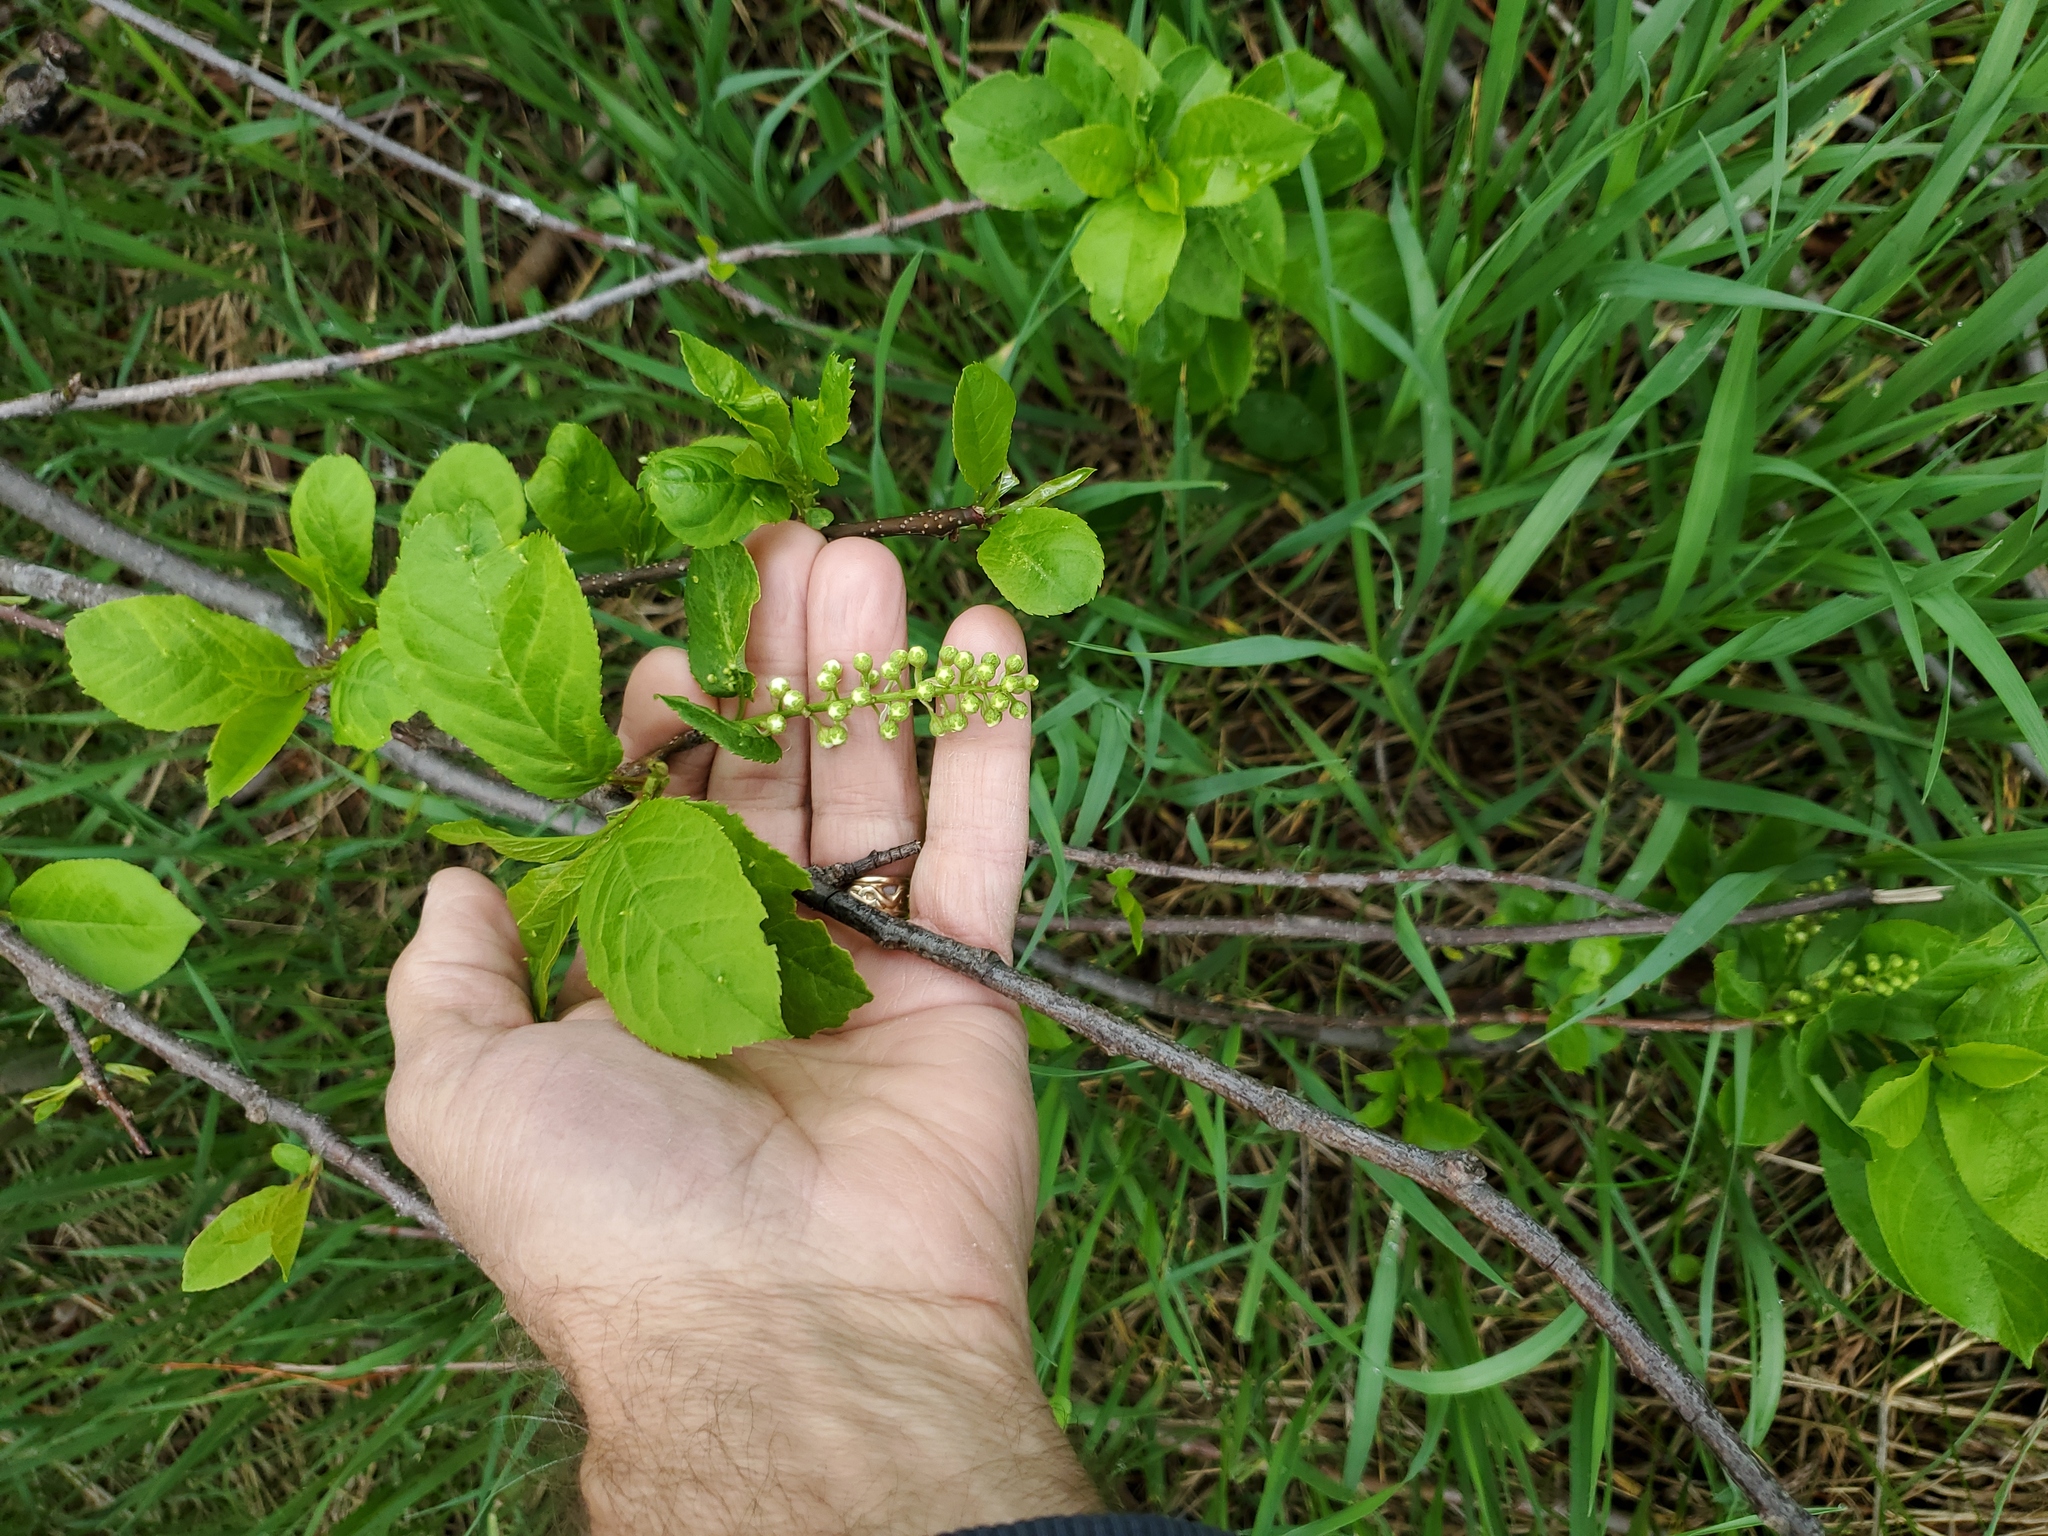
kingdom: Plantae
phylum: Tracheophyta
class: Magnoliopsida
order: Rosales
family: Rosaceae
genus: Prunus
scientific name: Prunus virginiana
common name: Chokecherry
